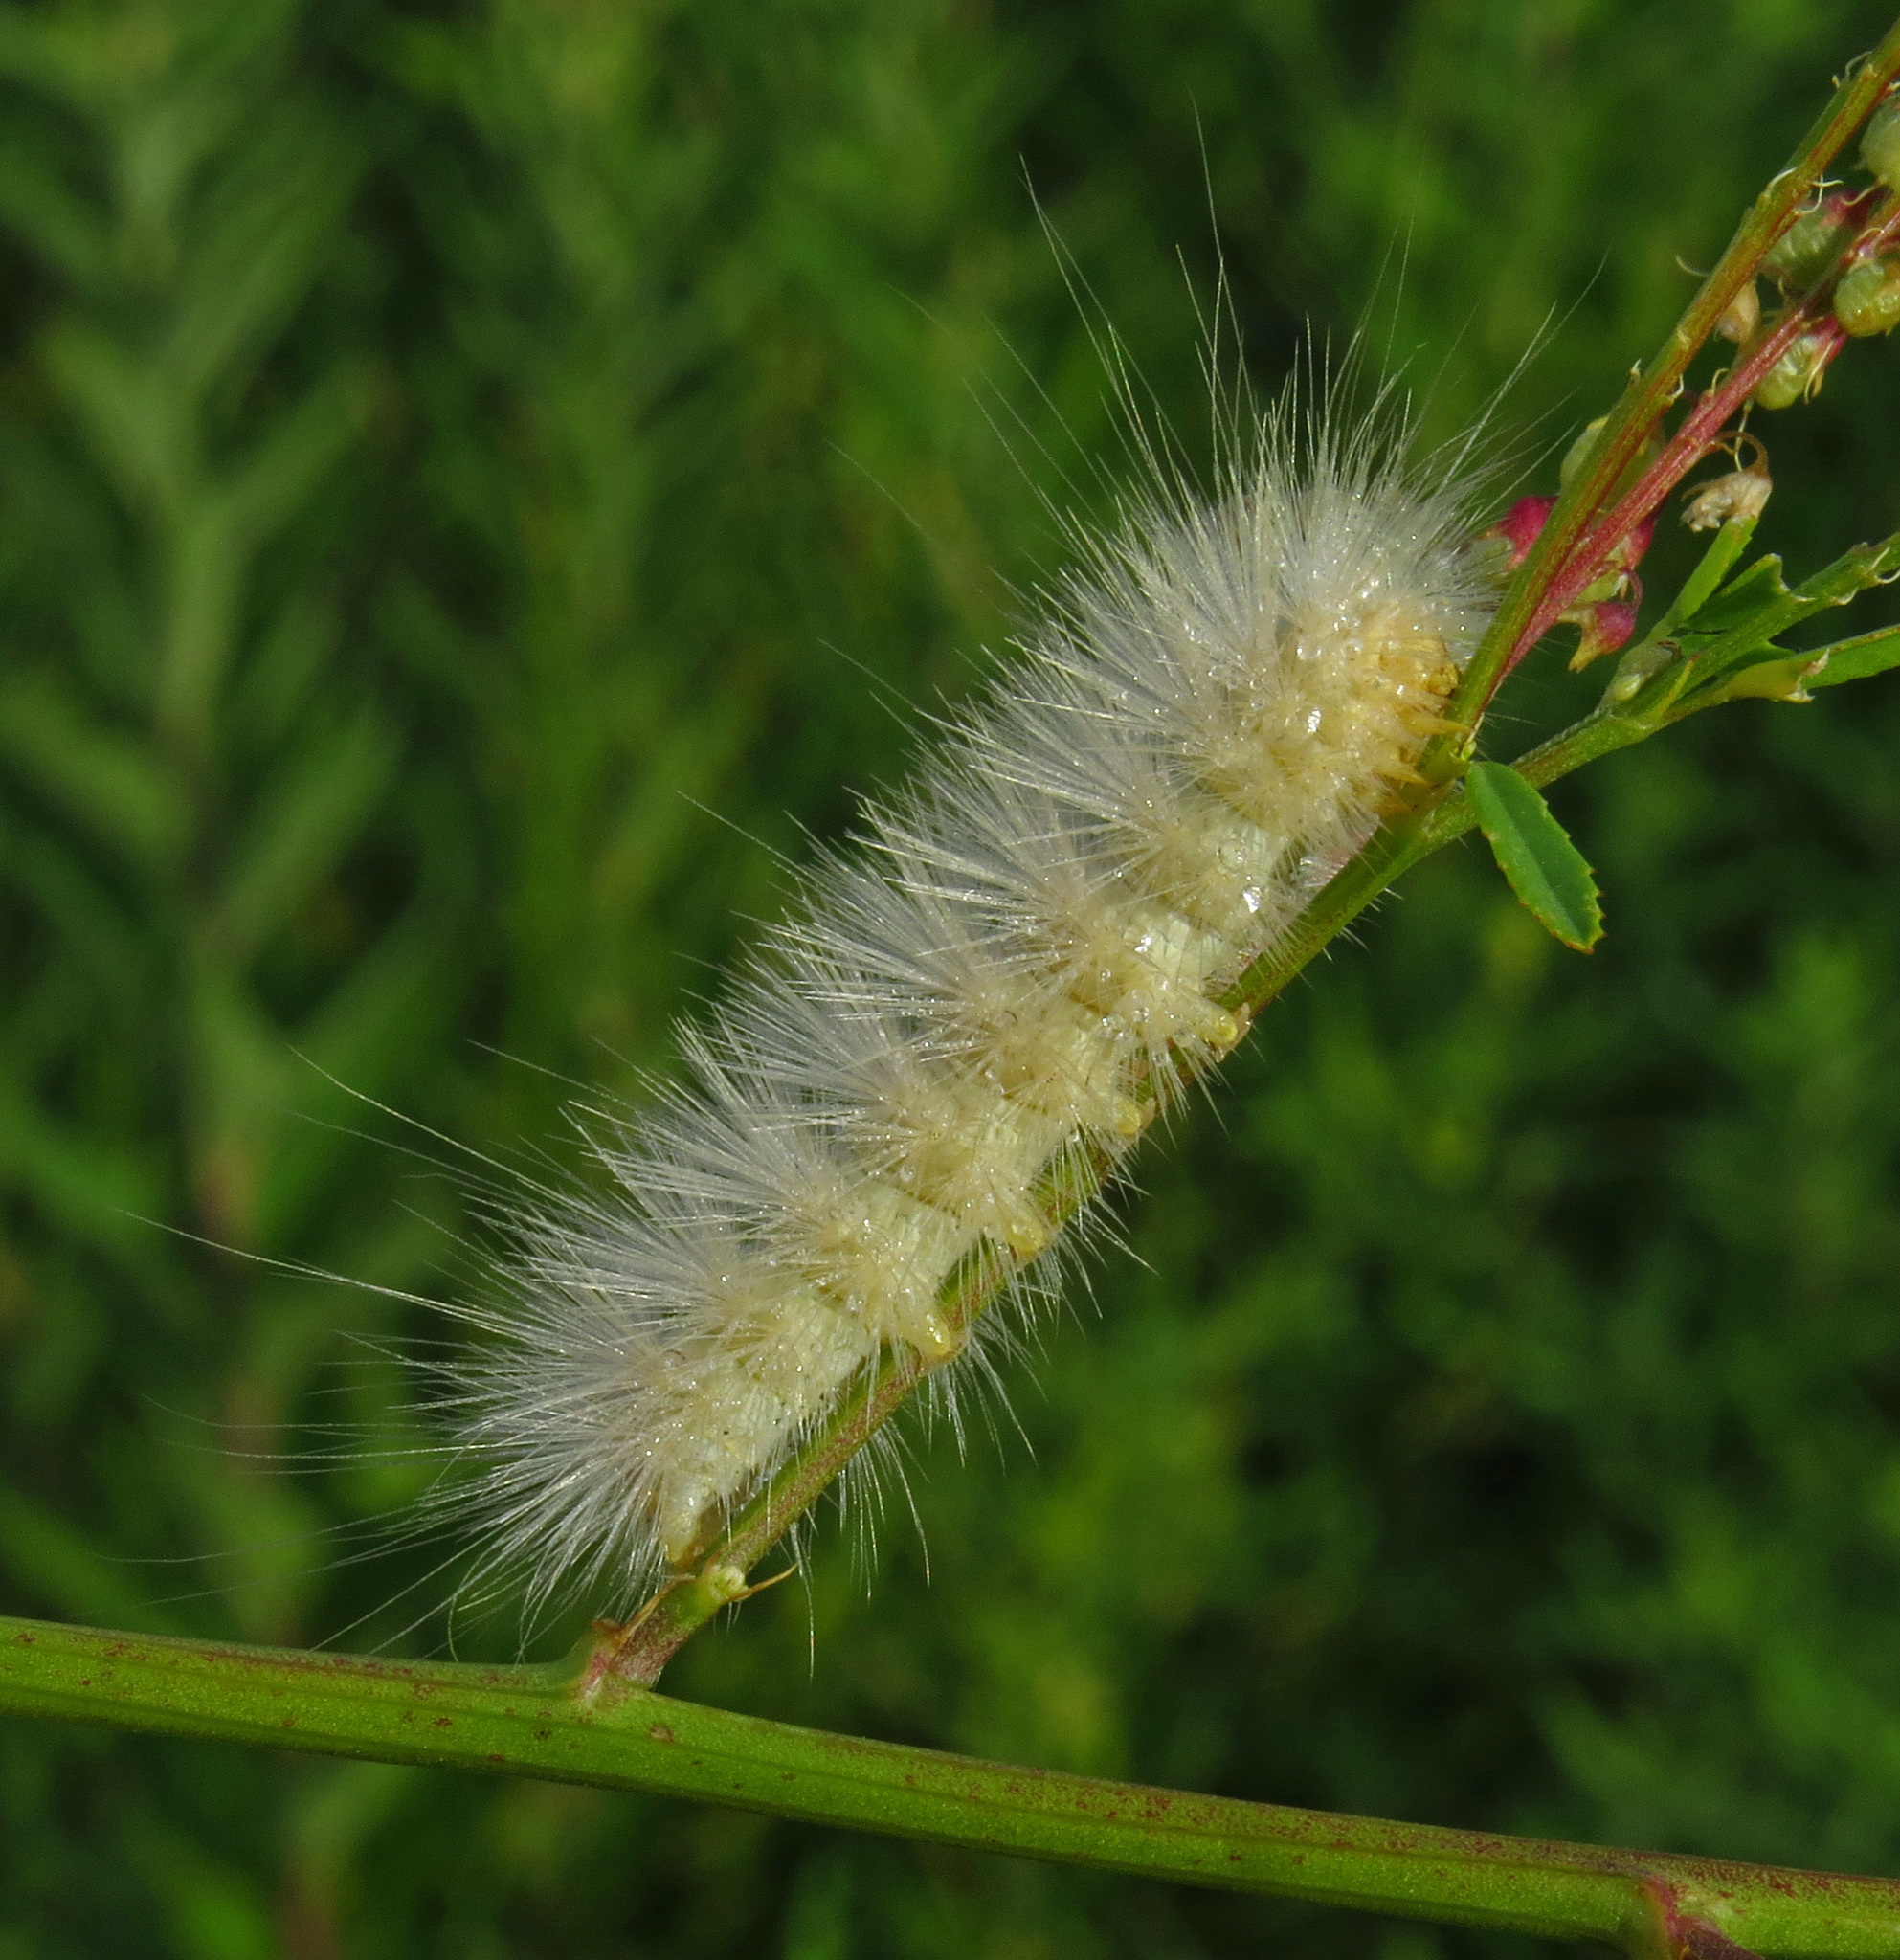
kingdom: Animalia
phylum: Arthropoda
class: Insecta
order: Lepidoptera
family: Erebidae
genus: Estigmene
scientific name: Estigmene acrea
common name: Salt marsh moth
